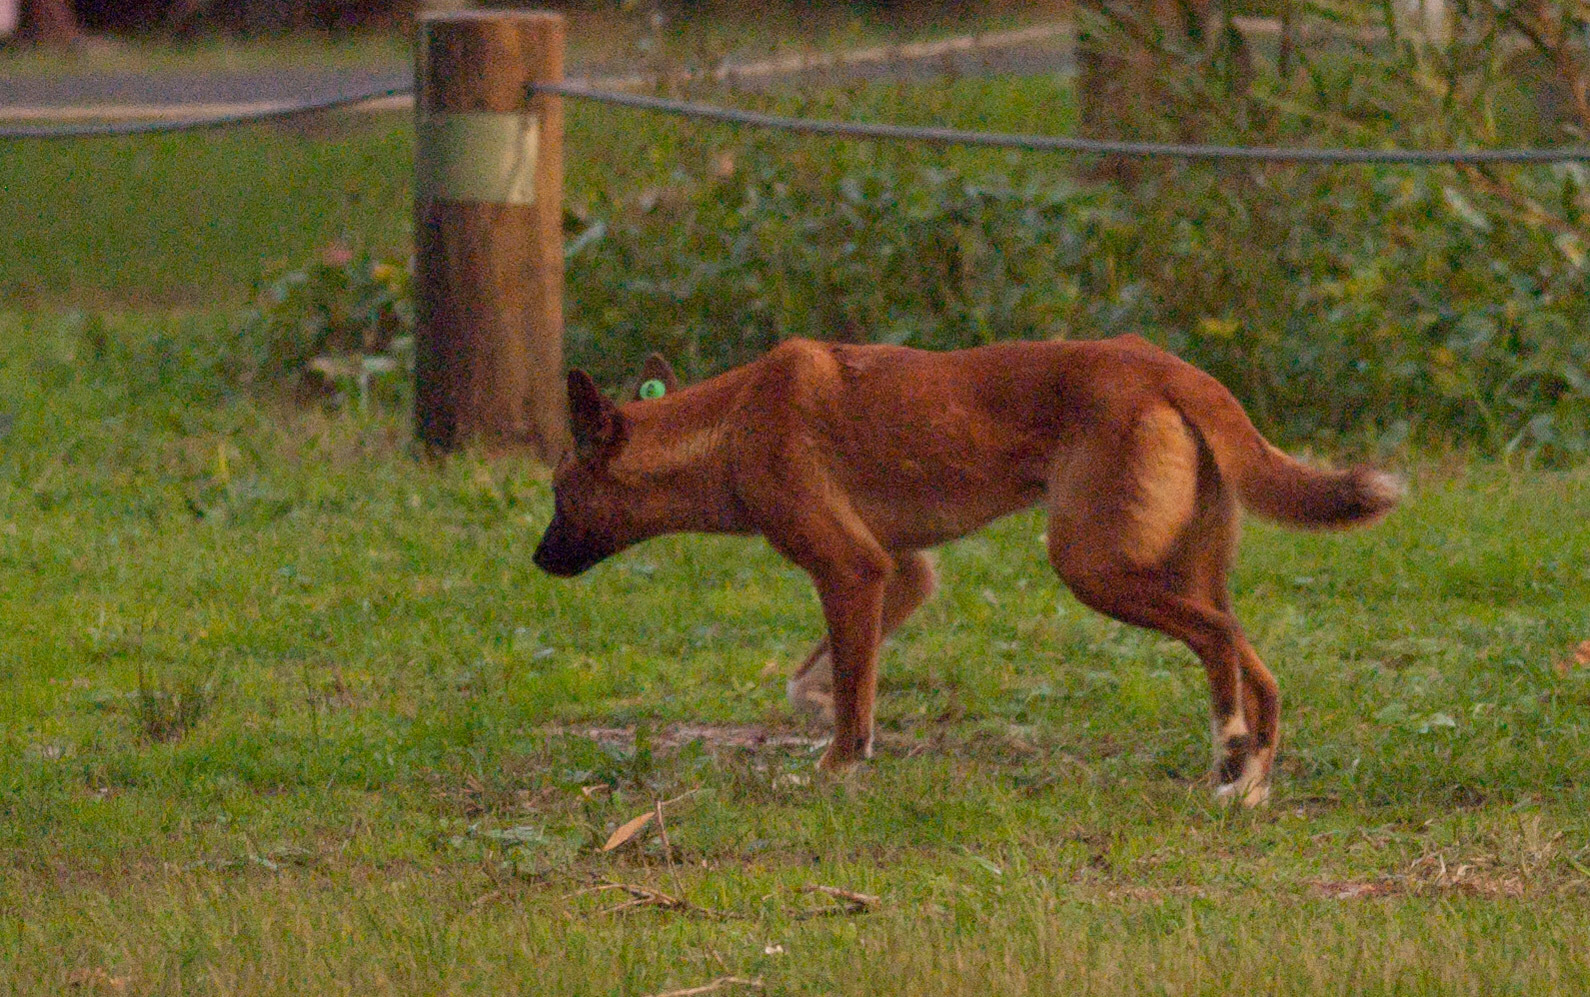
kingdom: Animalia
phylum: Chordata
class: Mammalia
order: Carnivora
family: Canidae
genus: Canis
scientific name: Canis lupus
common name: Gray wolf
